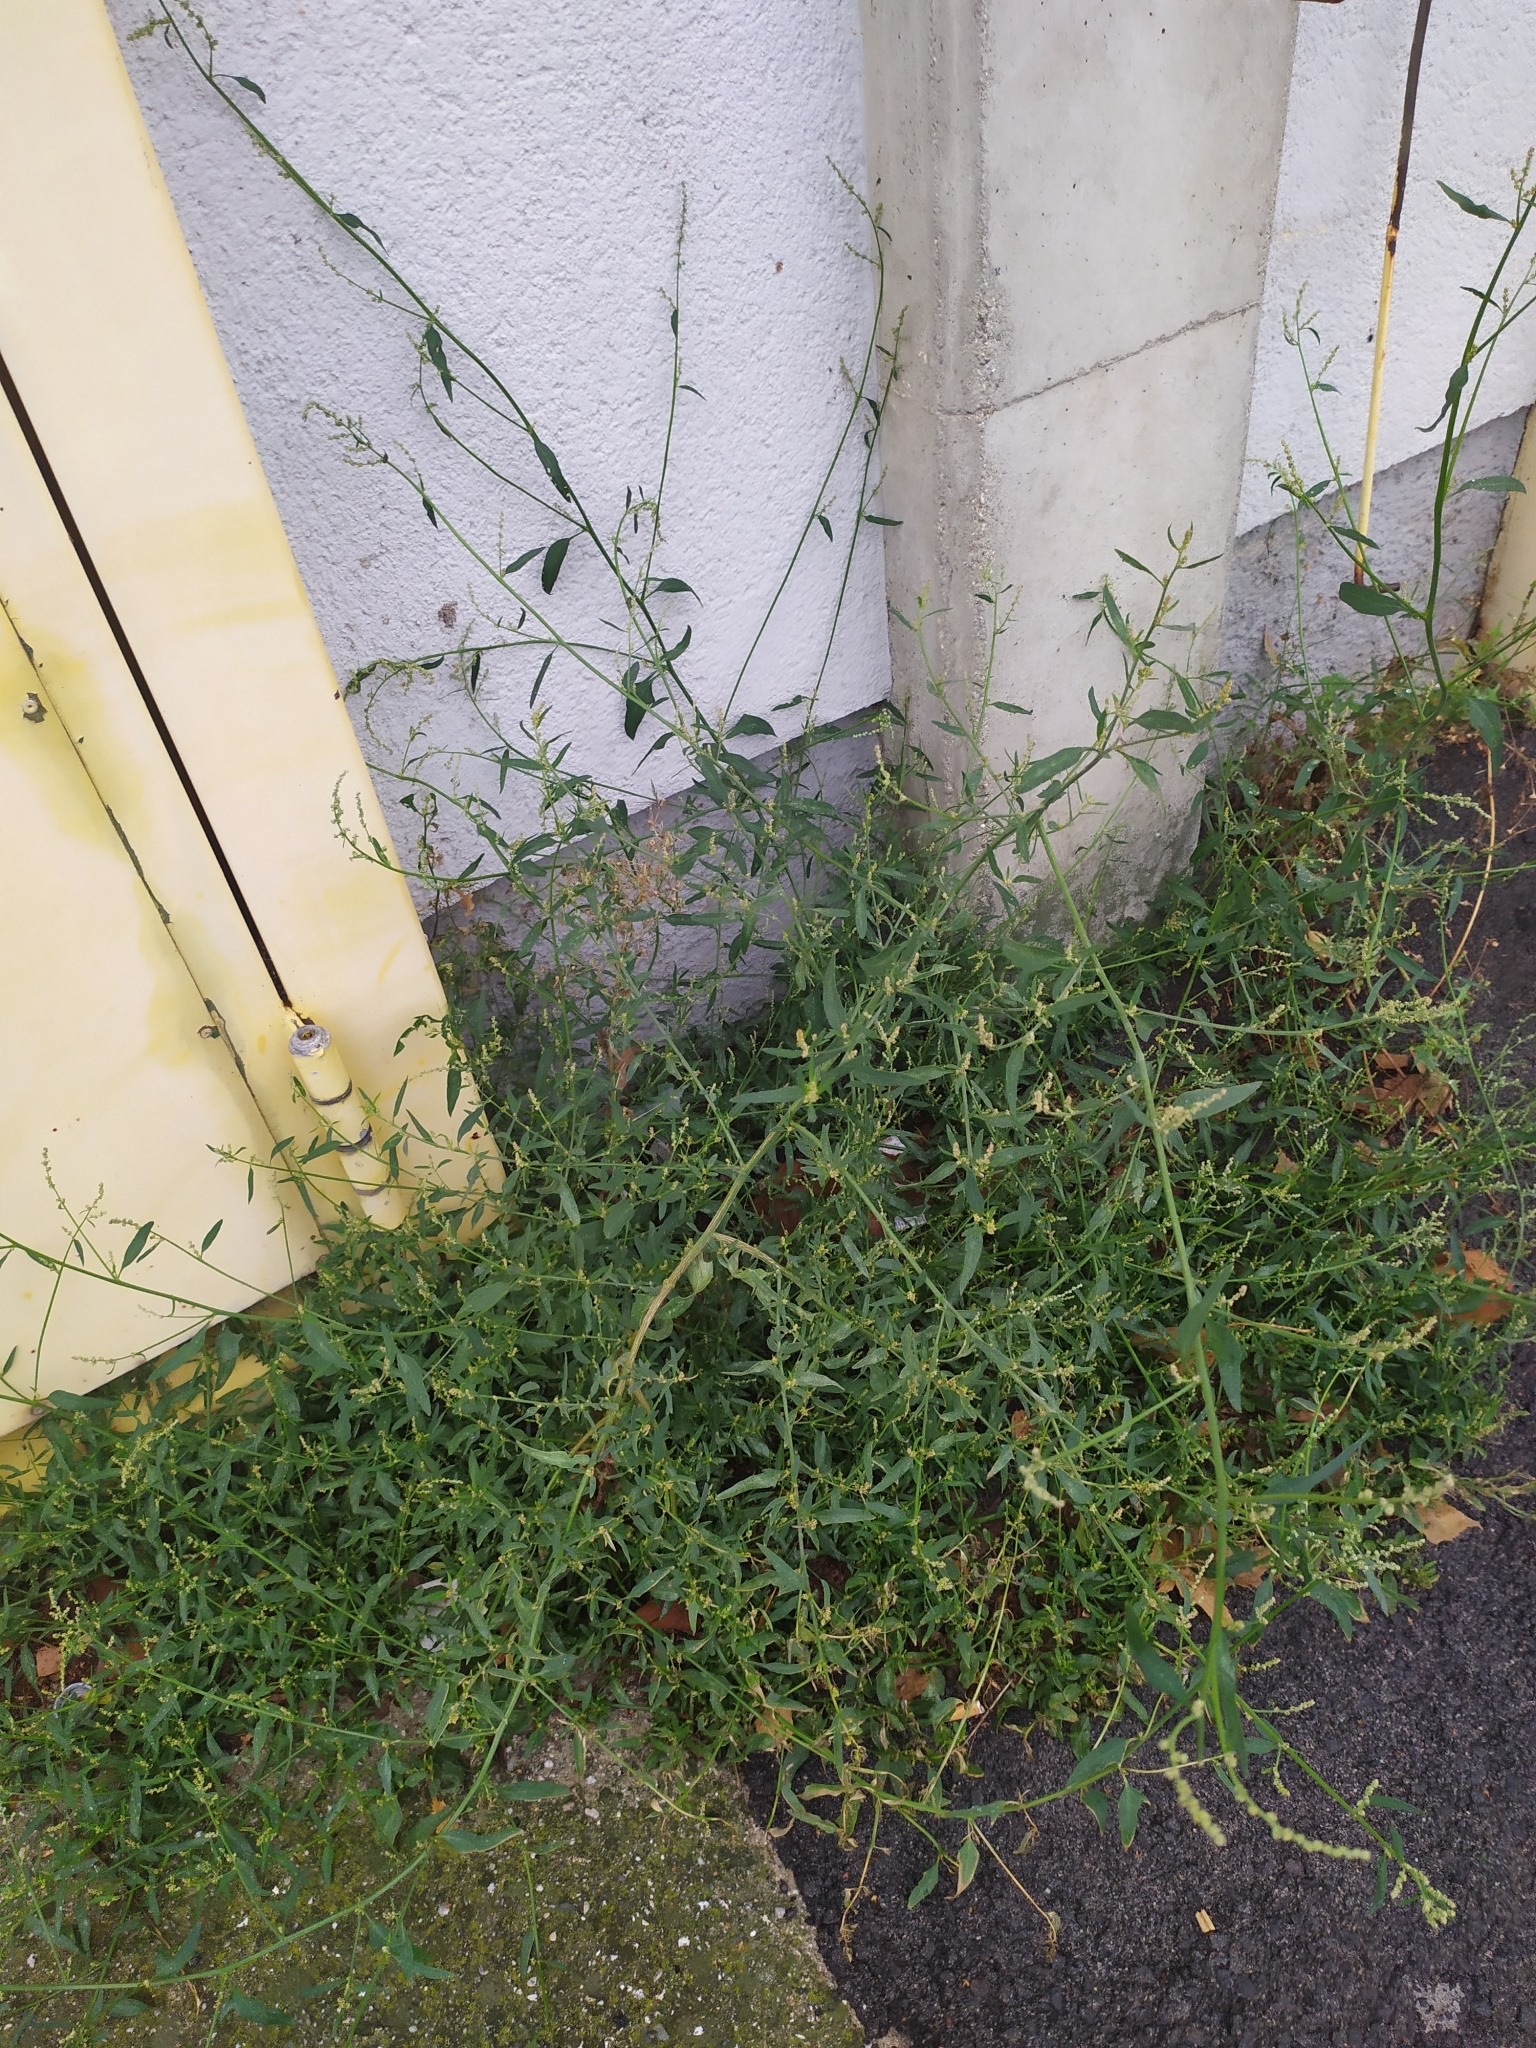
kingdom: Plantae
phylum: Tracheophyta
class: Magnoliopsida
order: Caryophyllales
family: Amaranthaceae
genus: Atriplex
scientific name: Atriplex patula
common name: Common orache
